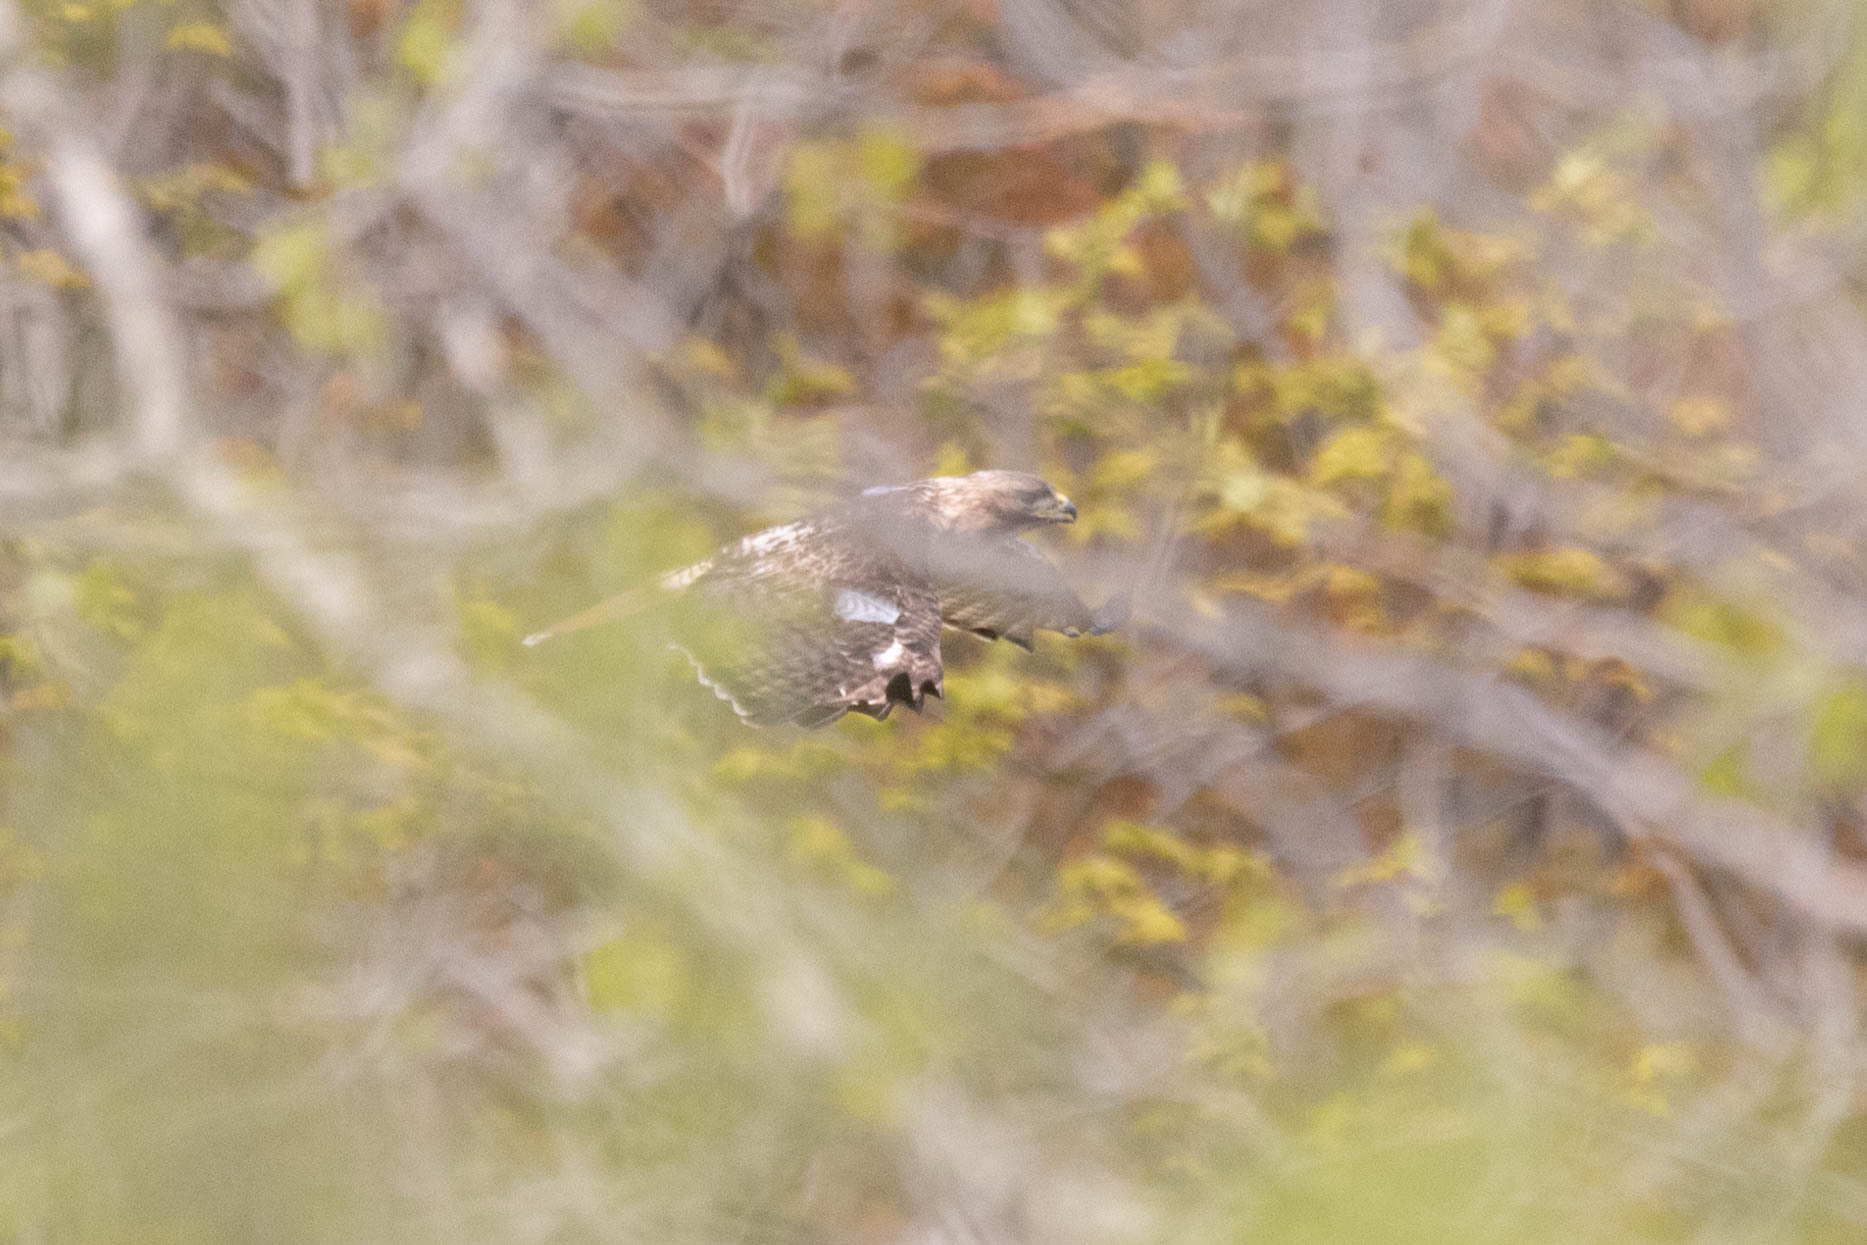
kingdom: Animalia
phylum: Chordata
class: Aves
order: Accipitriformes
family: Accipitridae
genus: Buteo
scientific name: Buteo jamaicensis
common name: Red-tailed hawk
